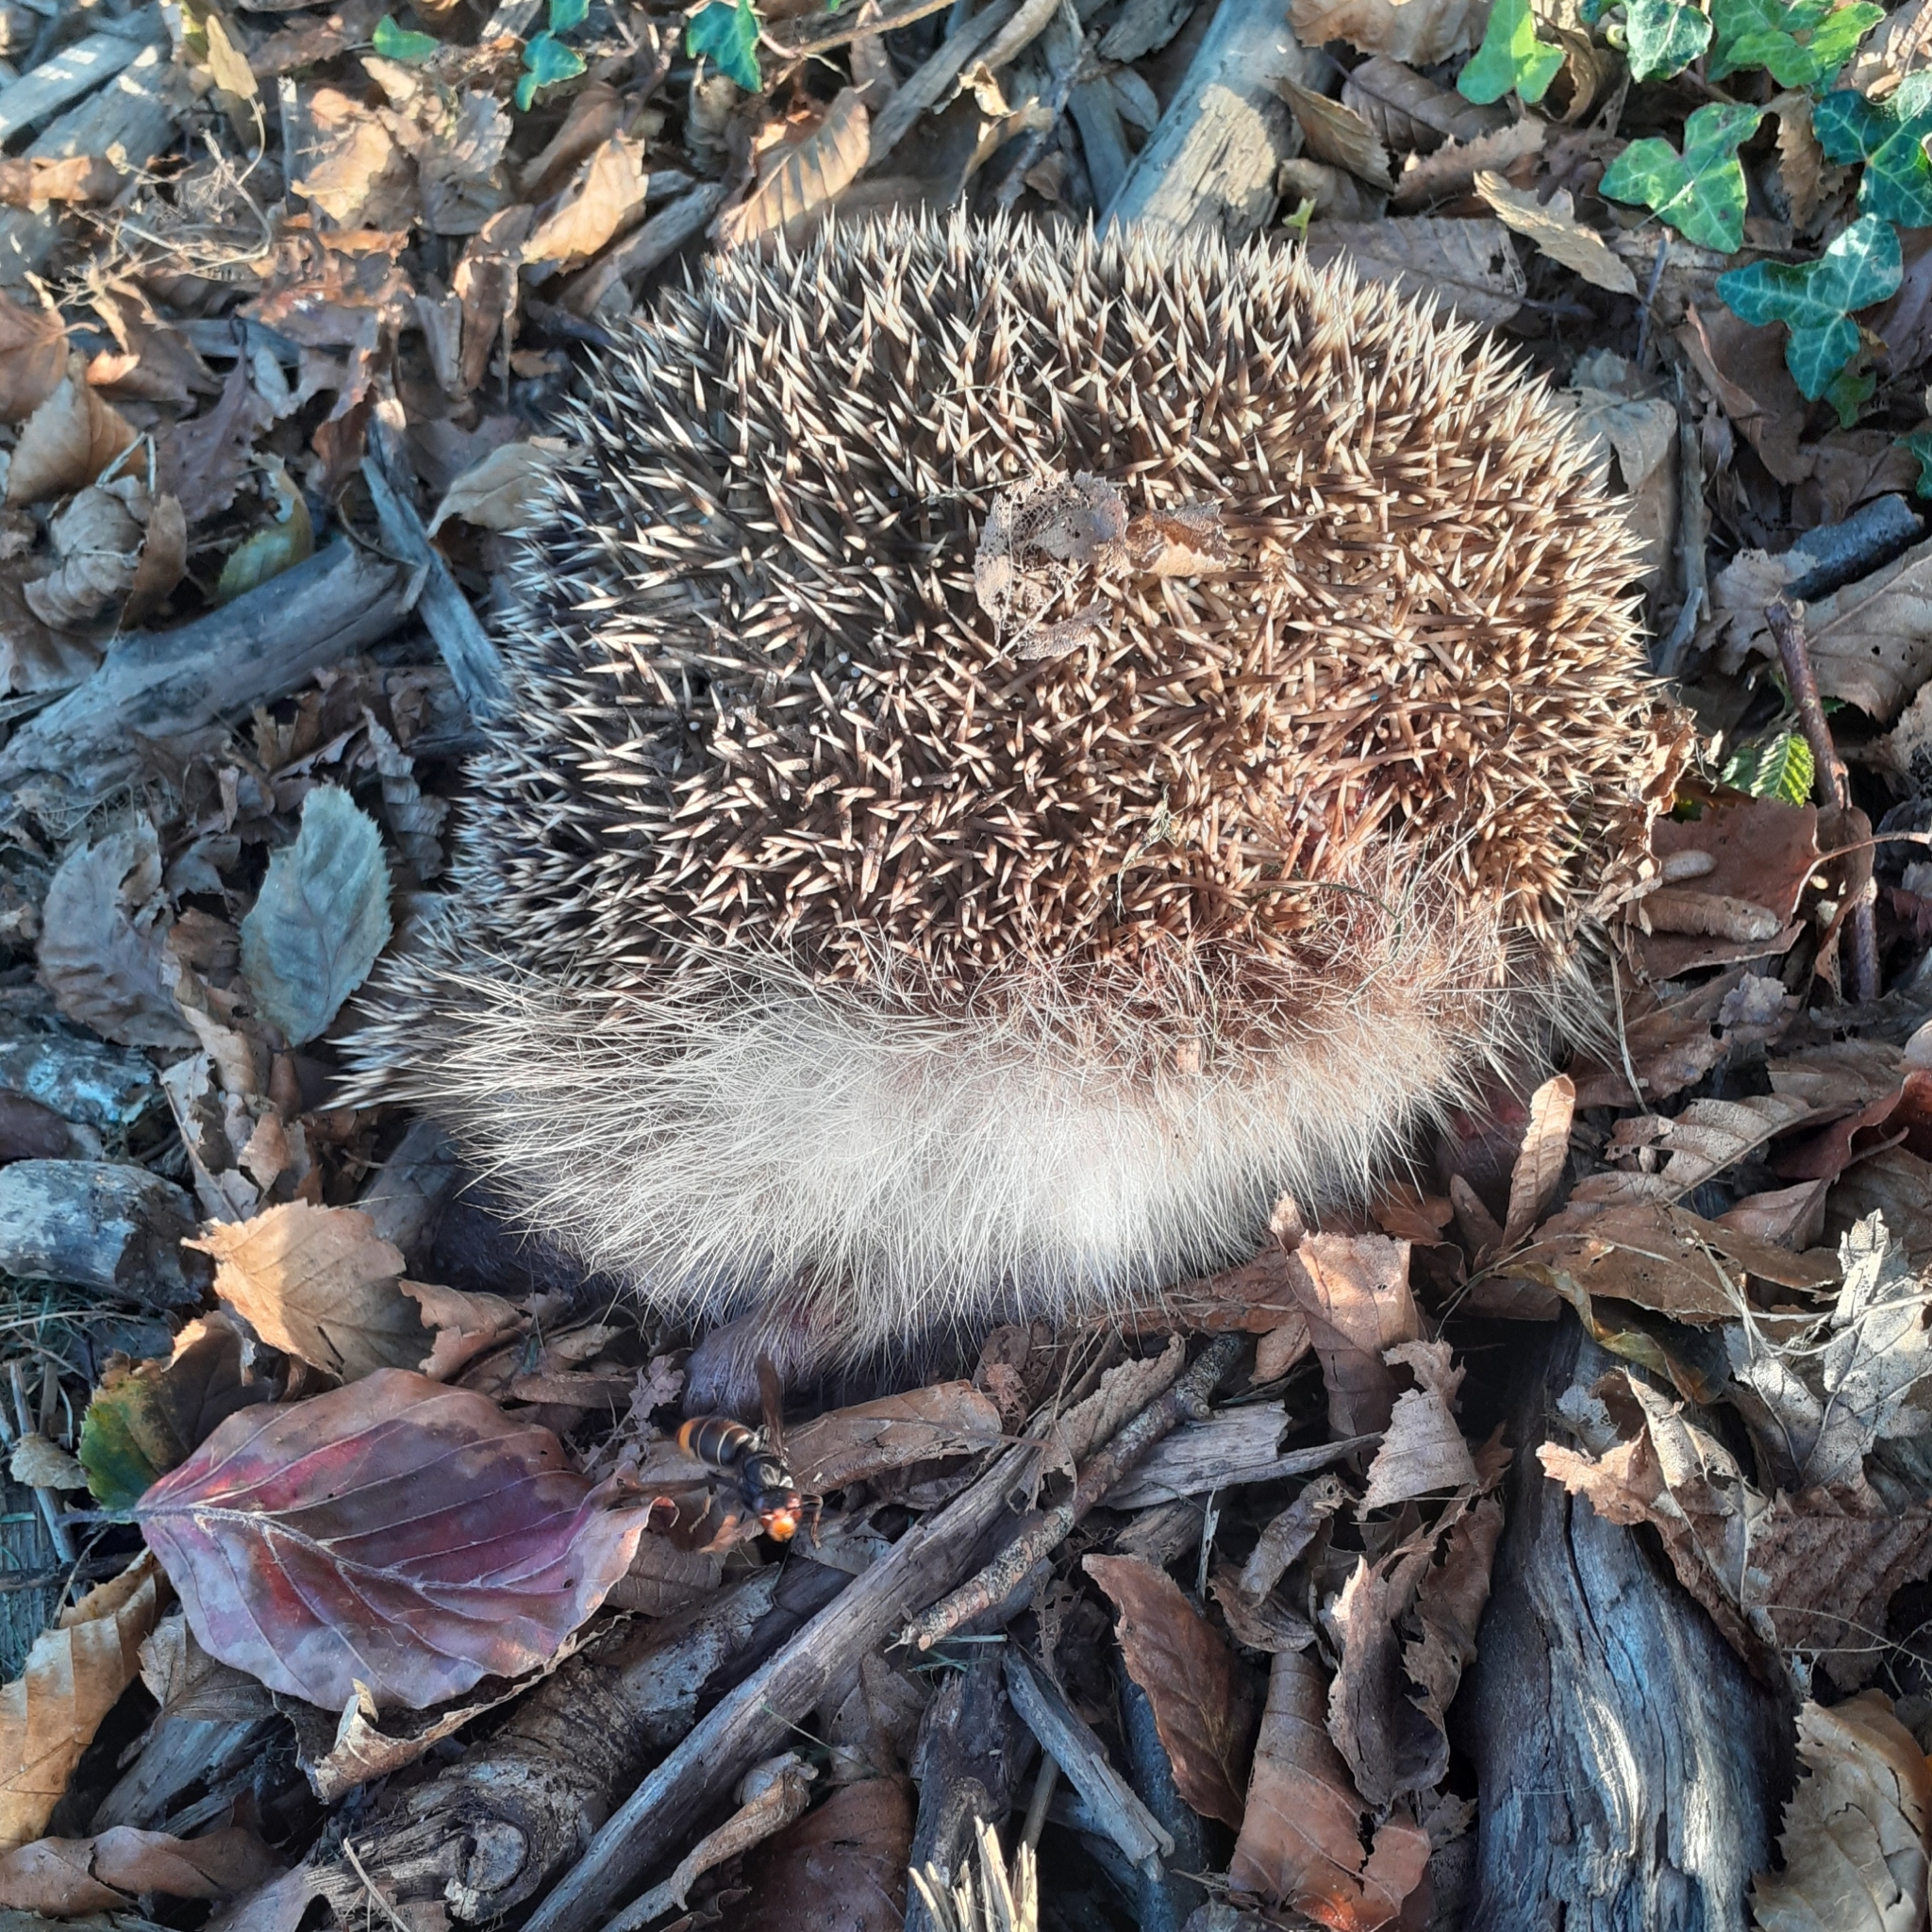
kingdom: Animalia
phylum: Arthropoda
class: Insecta
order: Hymenoptera
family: Vespidae
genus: Vespa
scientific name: Vespa velutina
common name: Asian hornet
